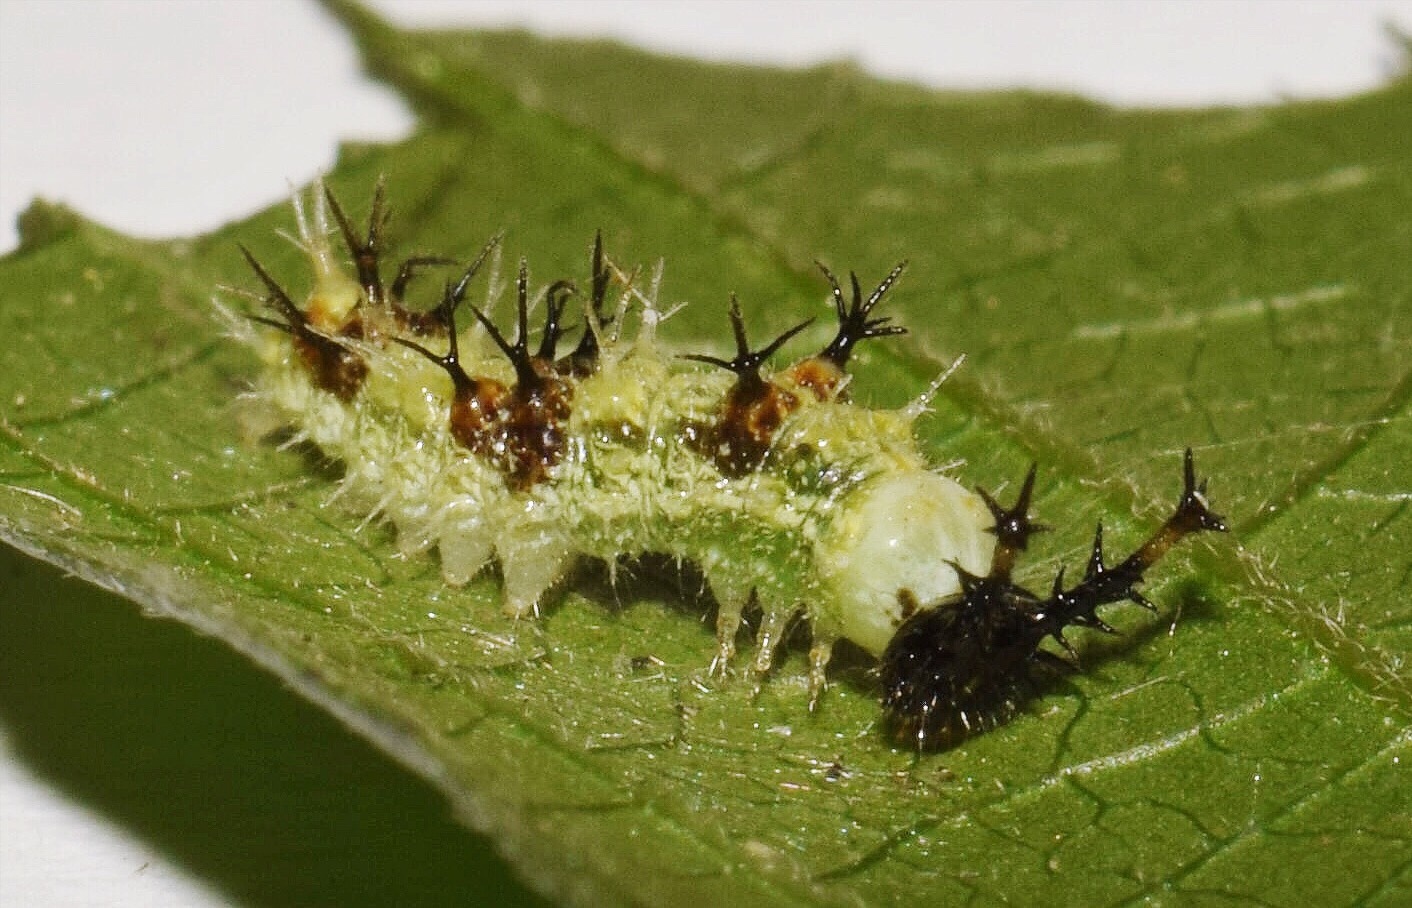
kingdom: Animalia
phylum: Arthropoda
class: Insecta
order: Lepidoptera
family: Nymphalidae
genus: Eurytela
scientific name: Eurytela hiarbas
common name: Pied piper
